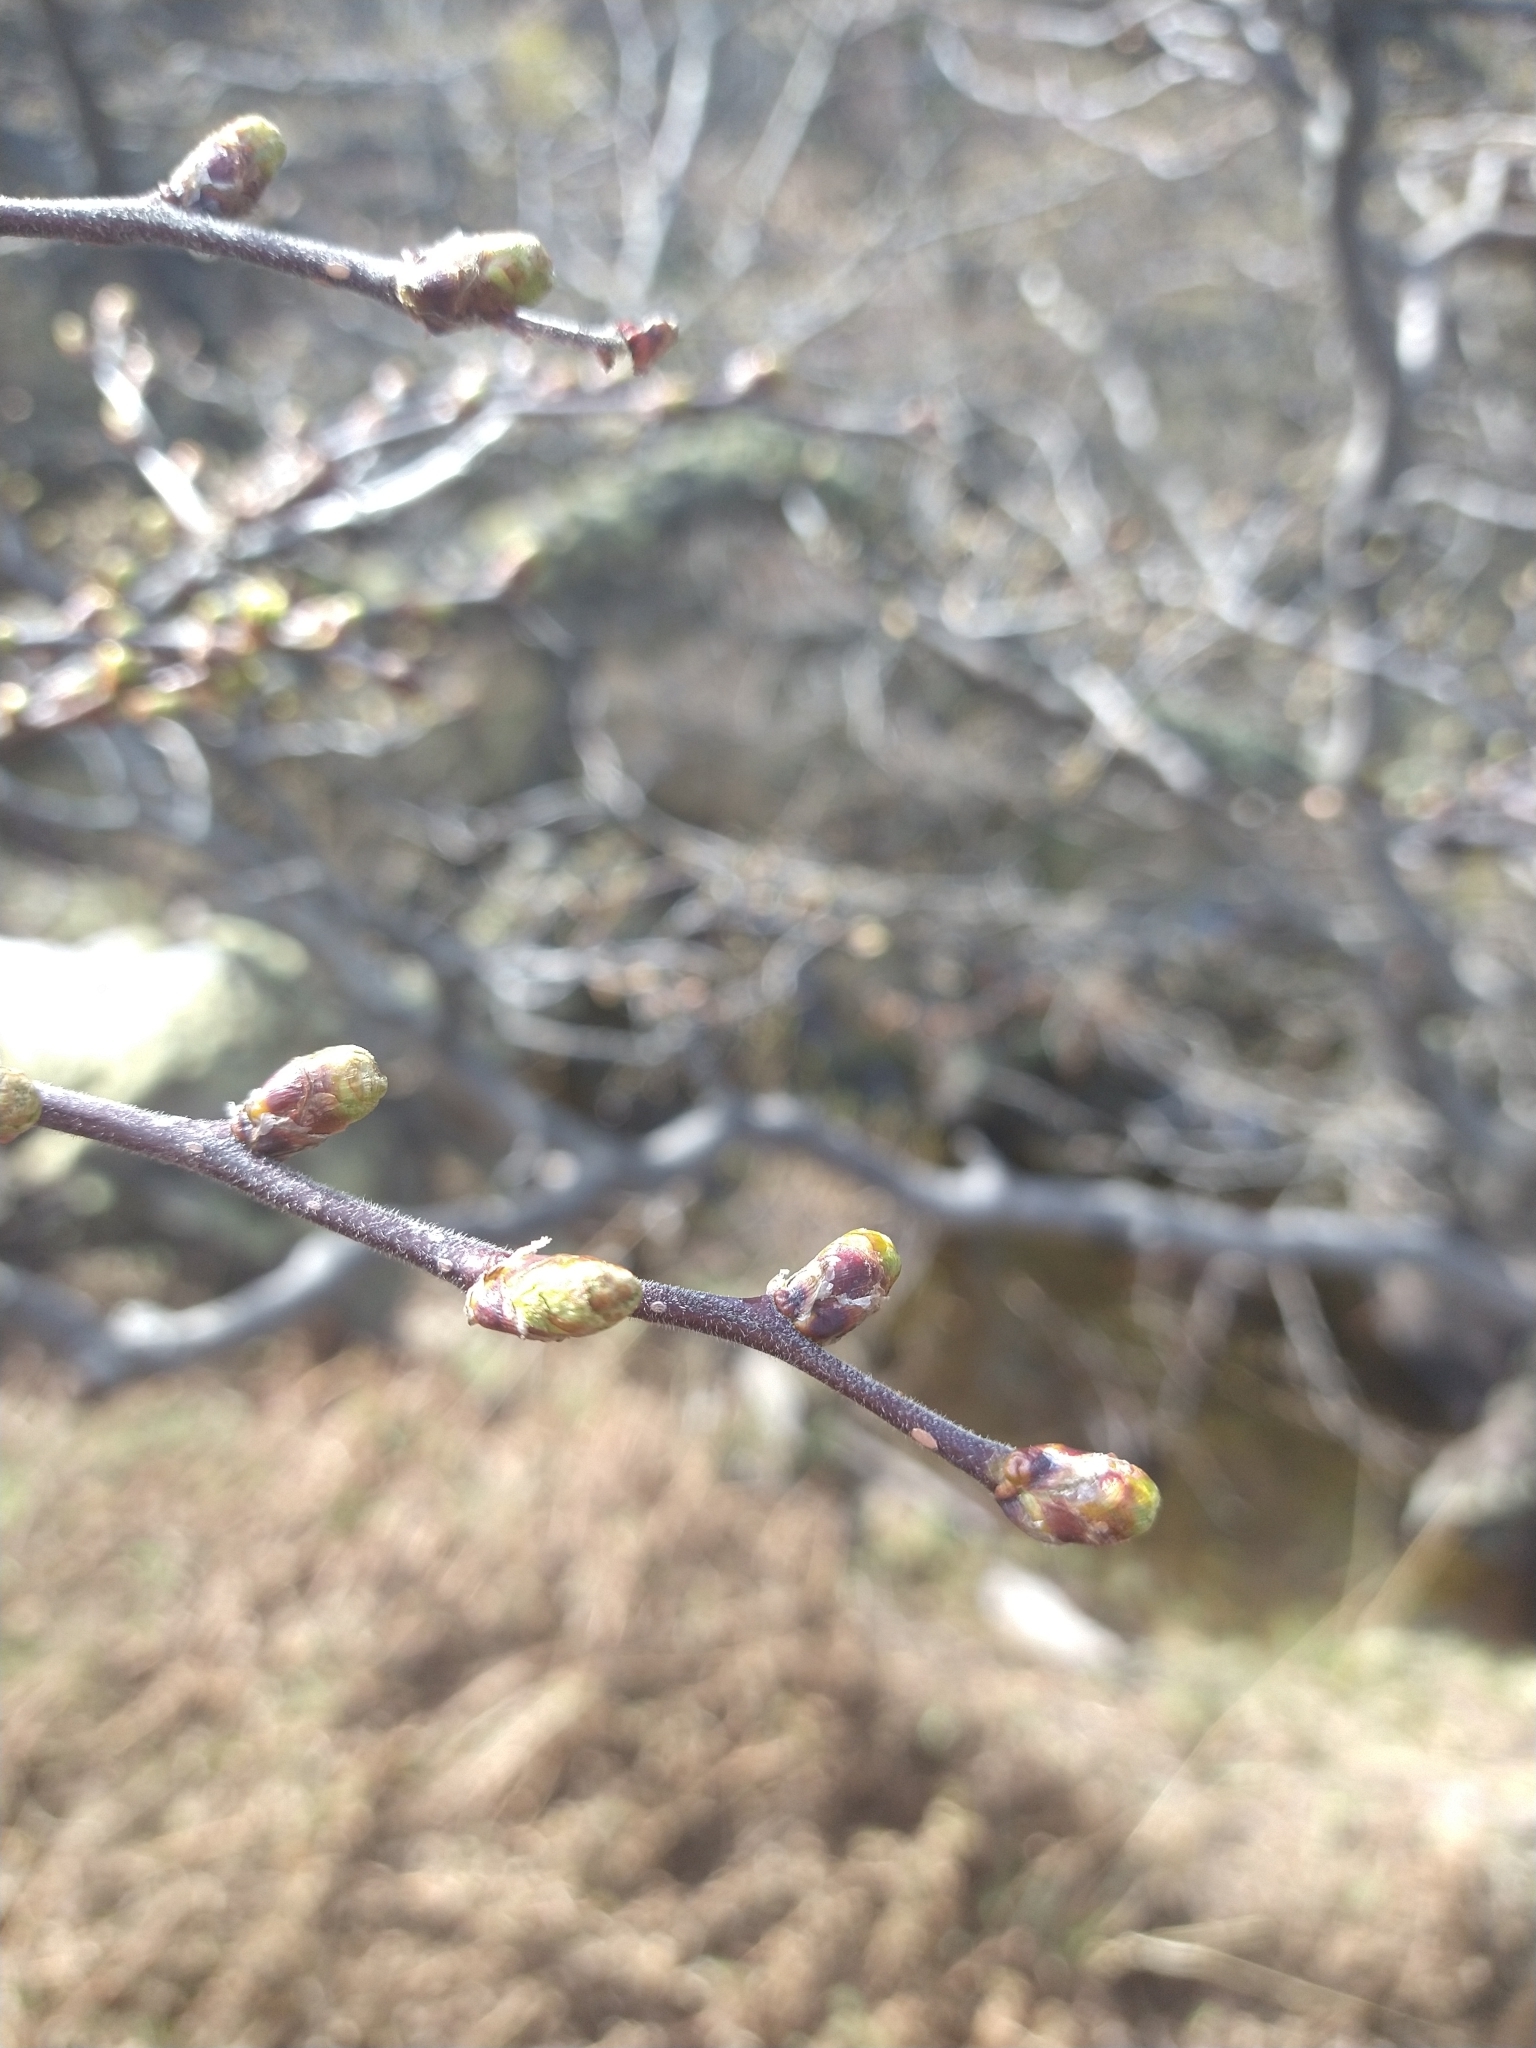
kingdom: Plantae
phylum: Tracheophyta
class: Magnoliopsida
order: Fagales
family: Nothofagaceae
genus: Nothofagus
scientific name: Nothofagus pumilio
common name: Lenga beech
